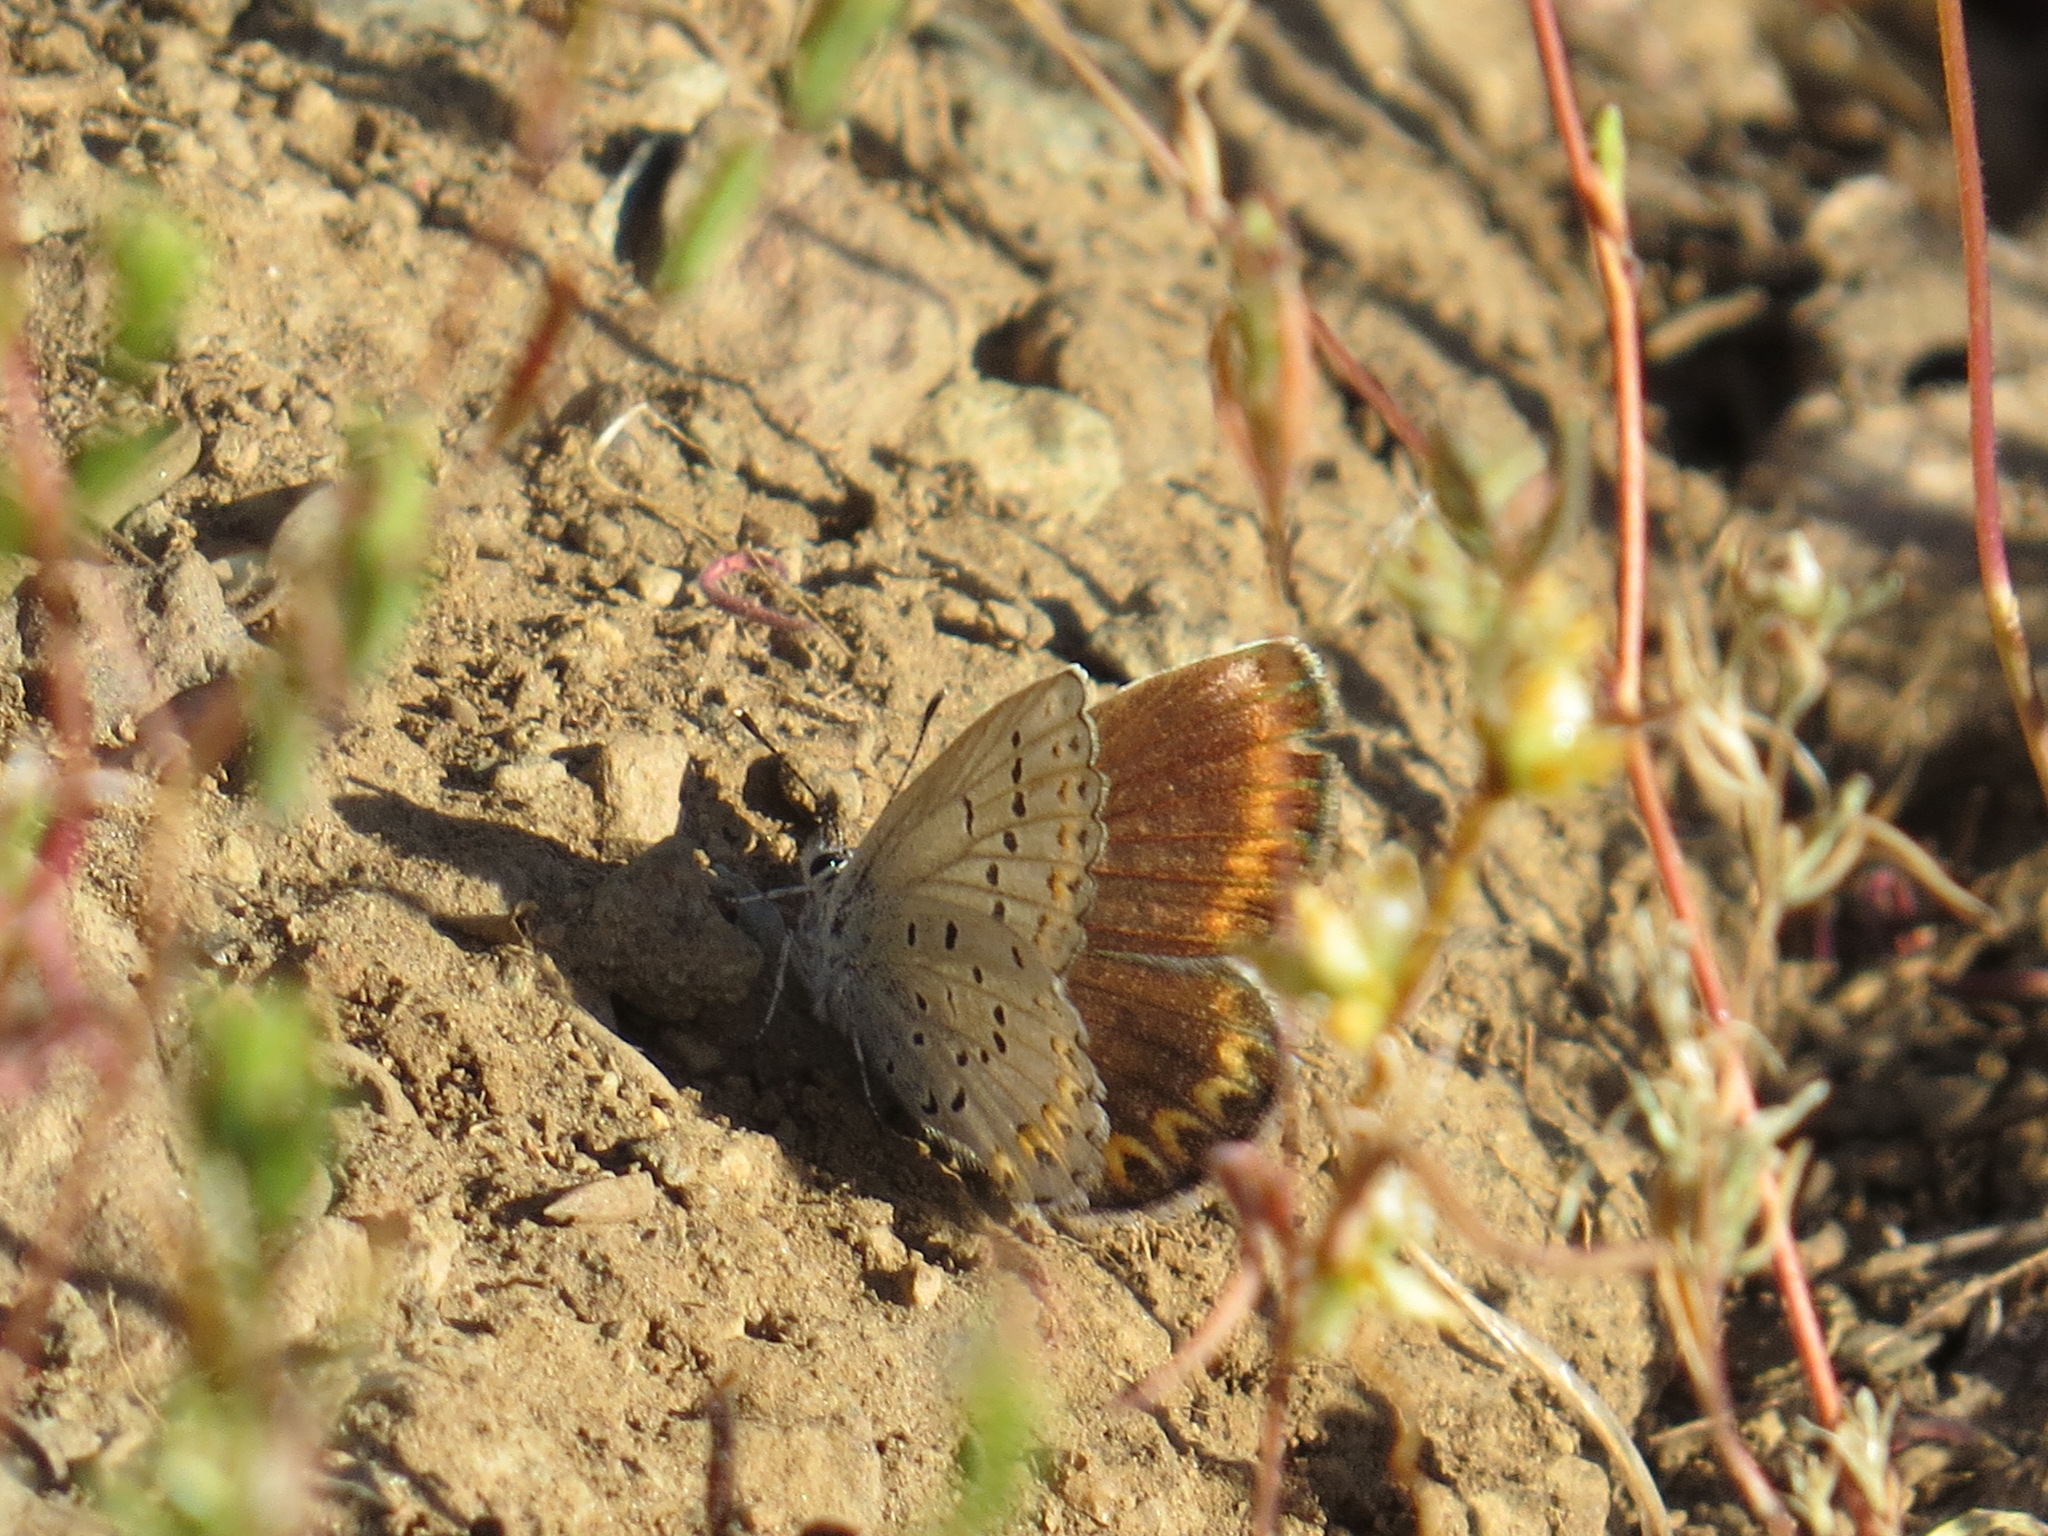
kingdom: Animalia
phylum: Arthropoda
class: Insecta
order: Lepidoptera
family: Lycaenidae
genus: Lycaeides
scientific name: Lycaeides anna
